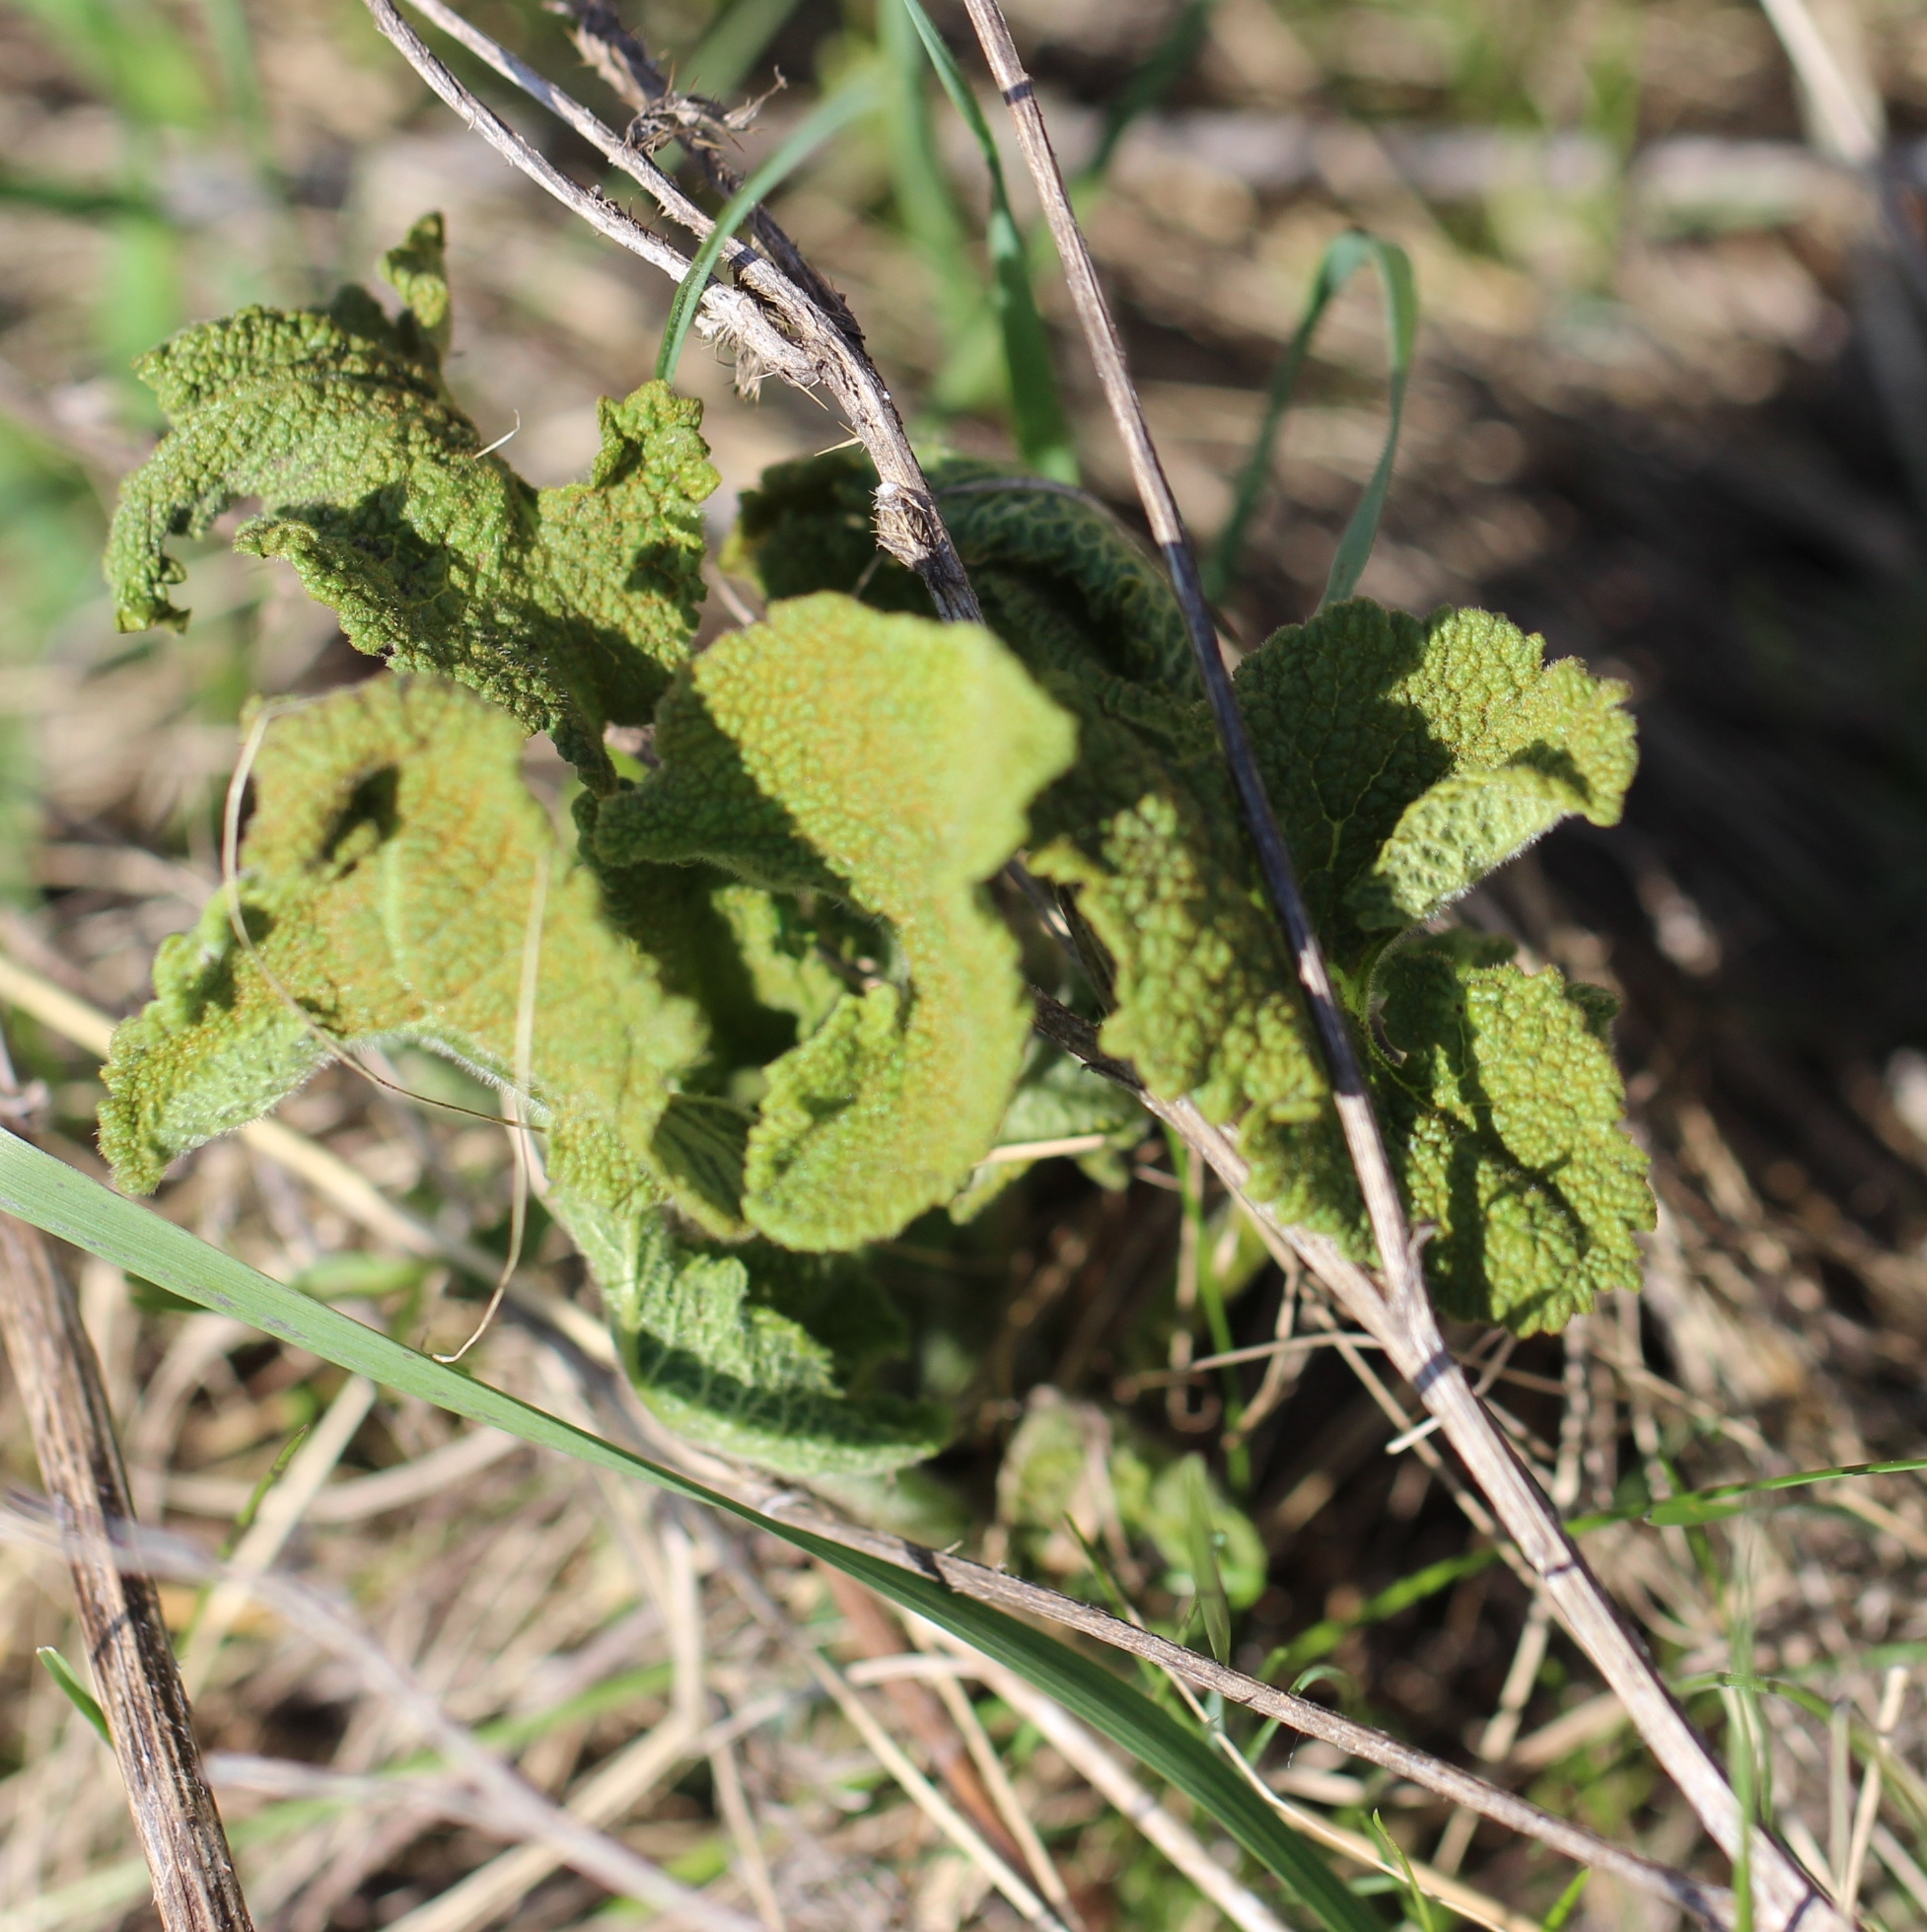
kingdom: Plantae
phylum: Tracheophyta
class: Magnoliopsida
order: Lamiales
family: Lamiaceae
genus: Phlomoides
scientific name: Phlomoides tuberosa
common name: Tuberous jerusalem sage
